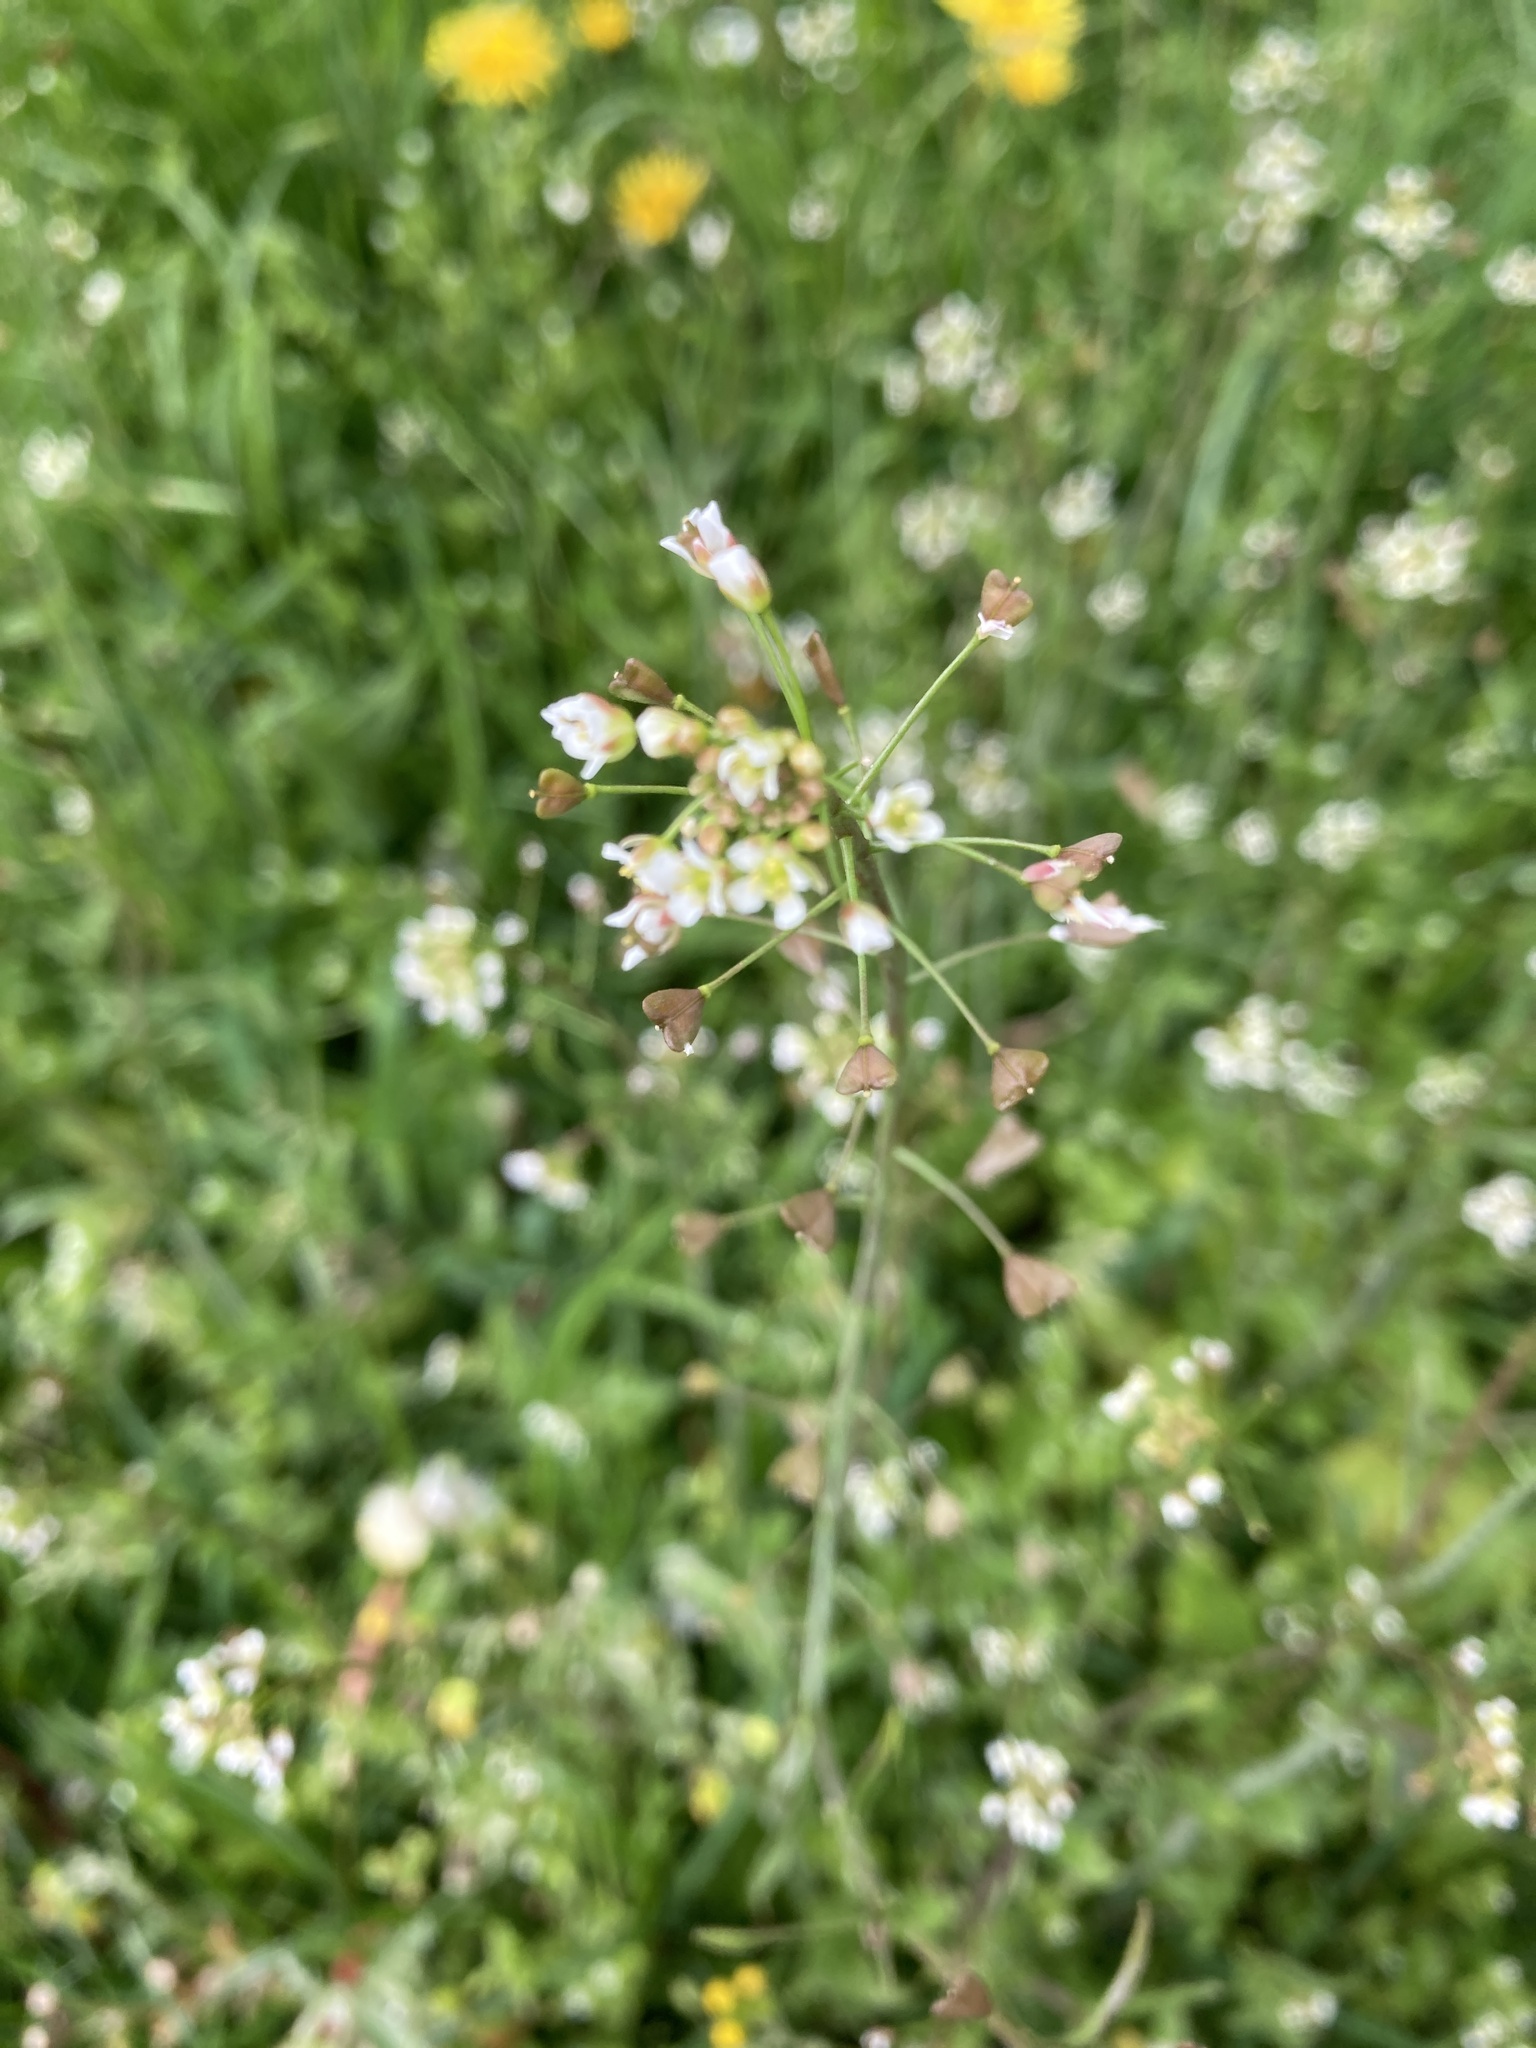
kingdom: Plantae
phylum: Tracheophyta
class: Magnoliopsida
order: Brassicales
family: Brassicaceae
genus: Capsella
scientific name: Capsella bursa-pastoris
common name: Shepherd's purse
